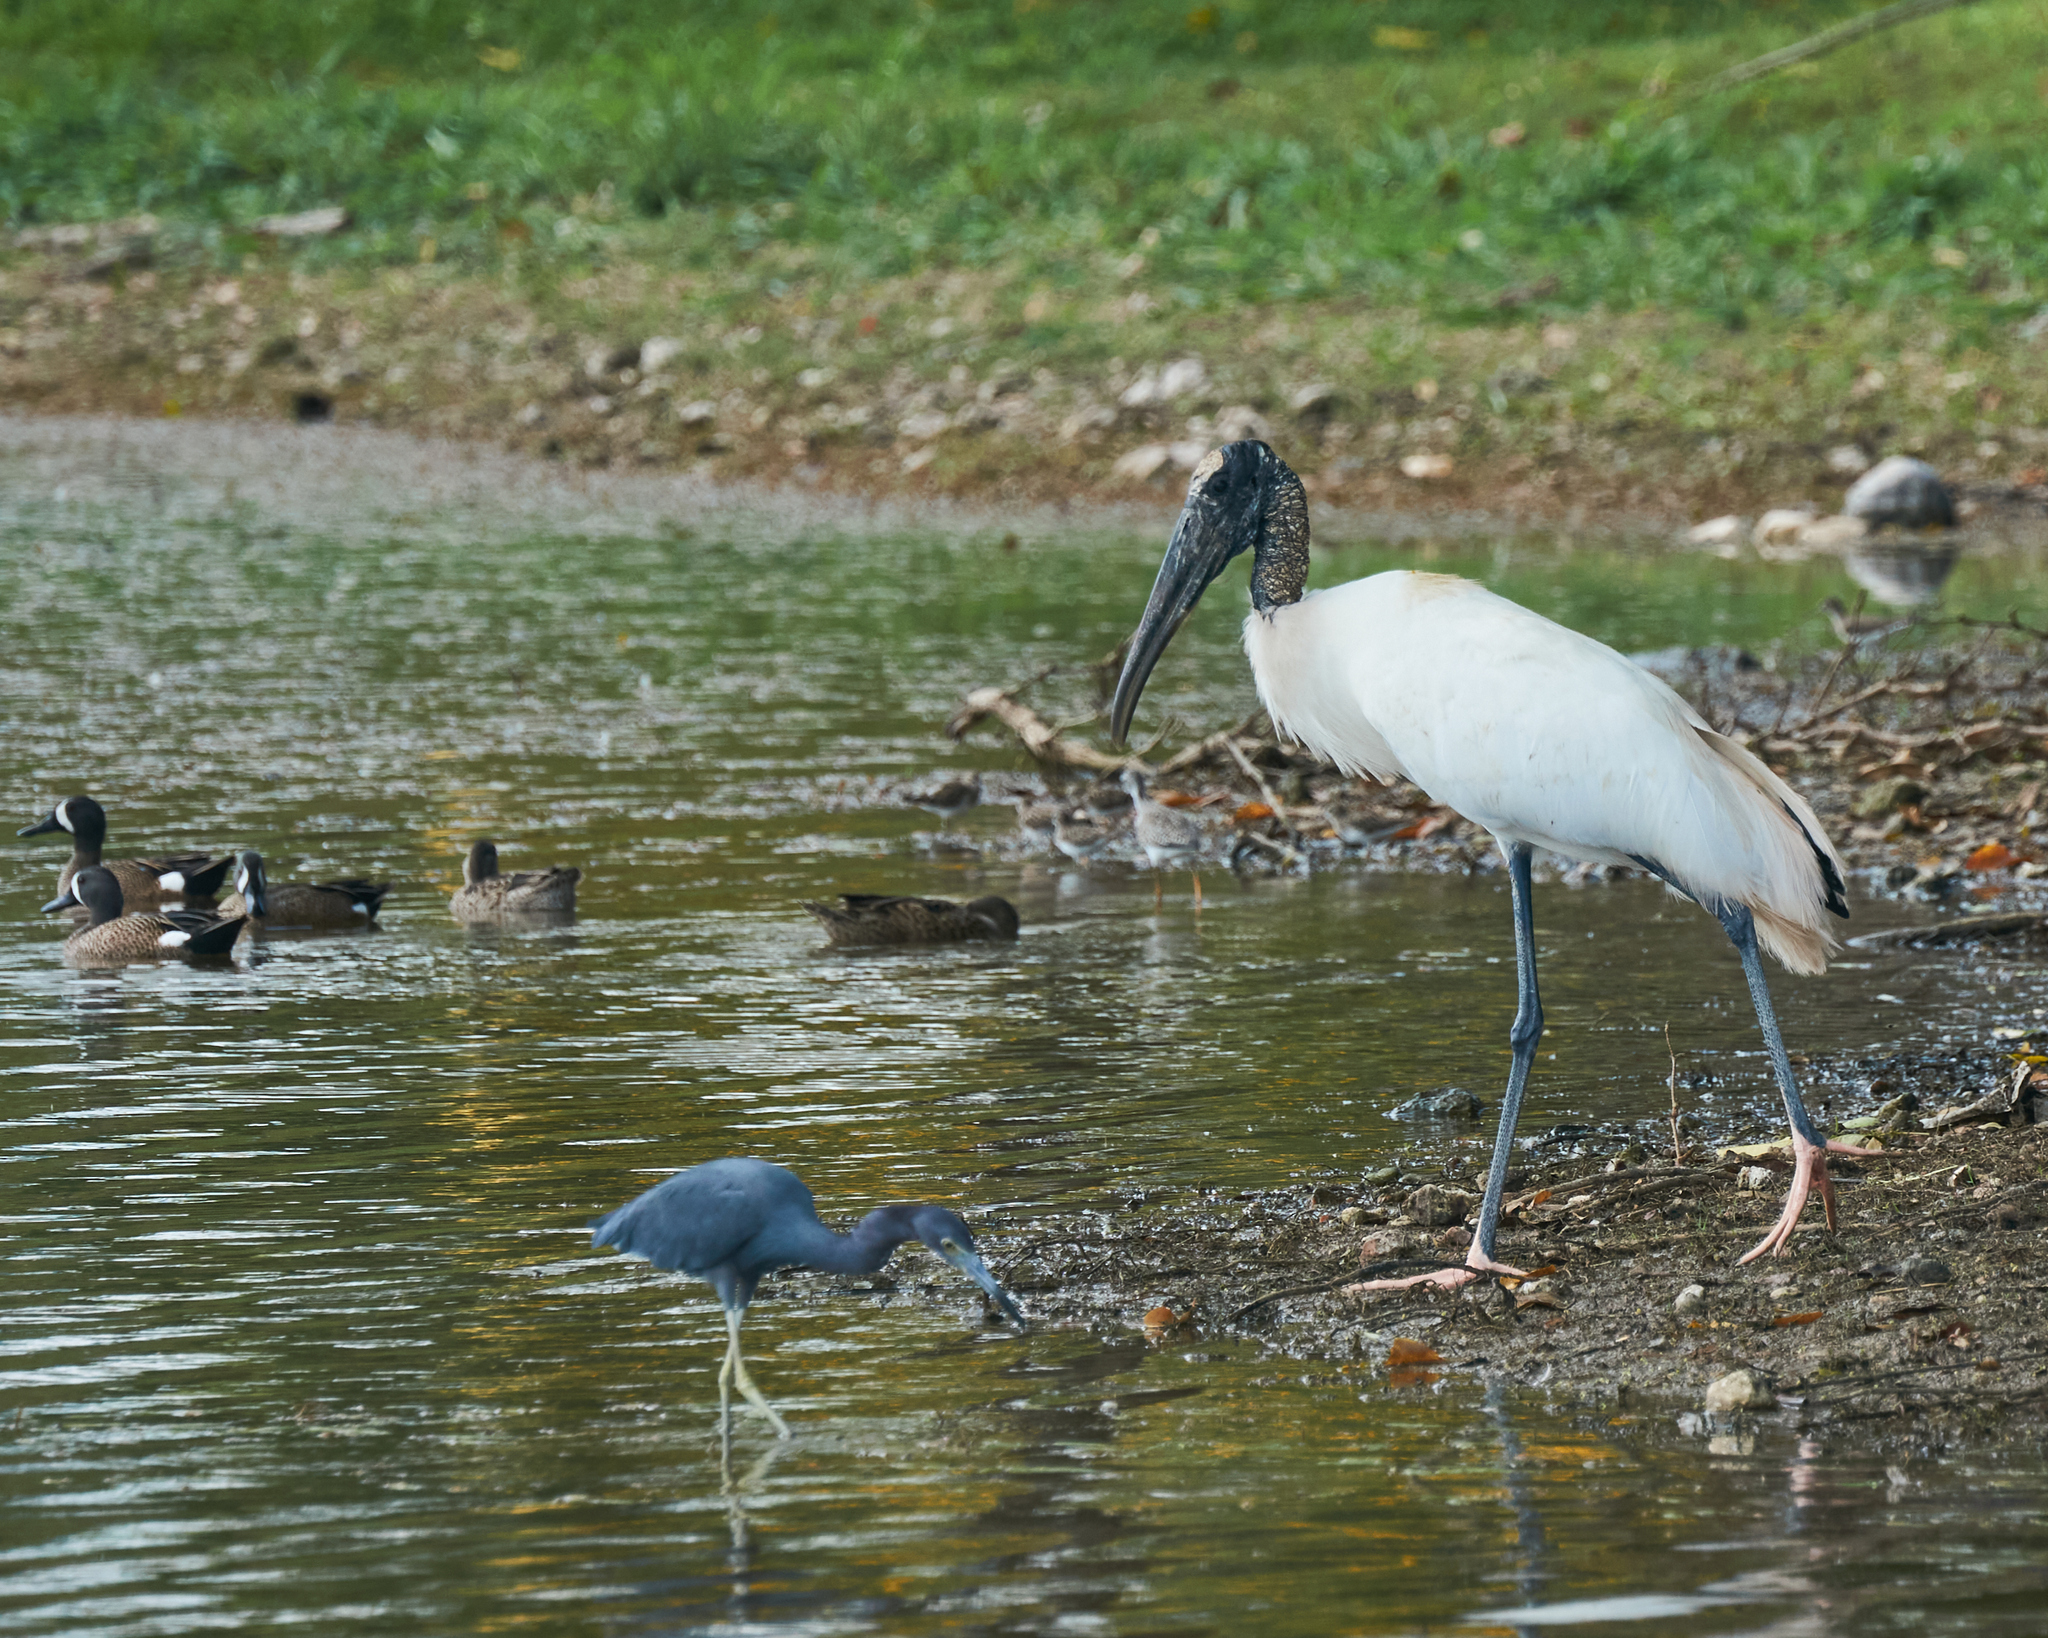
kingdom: Animalia
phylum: Chordata
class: Aves
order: Ciconiiformes
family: Ciconiidae
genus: Mycteria
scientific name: Mycteria americana
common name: Wood stork
